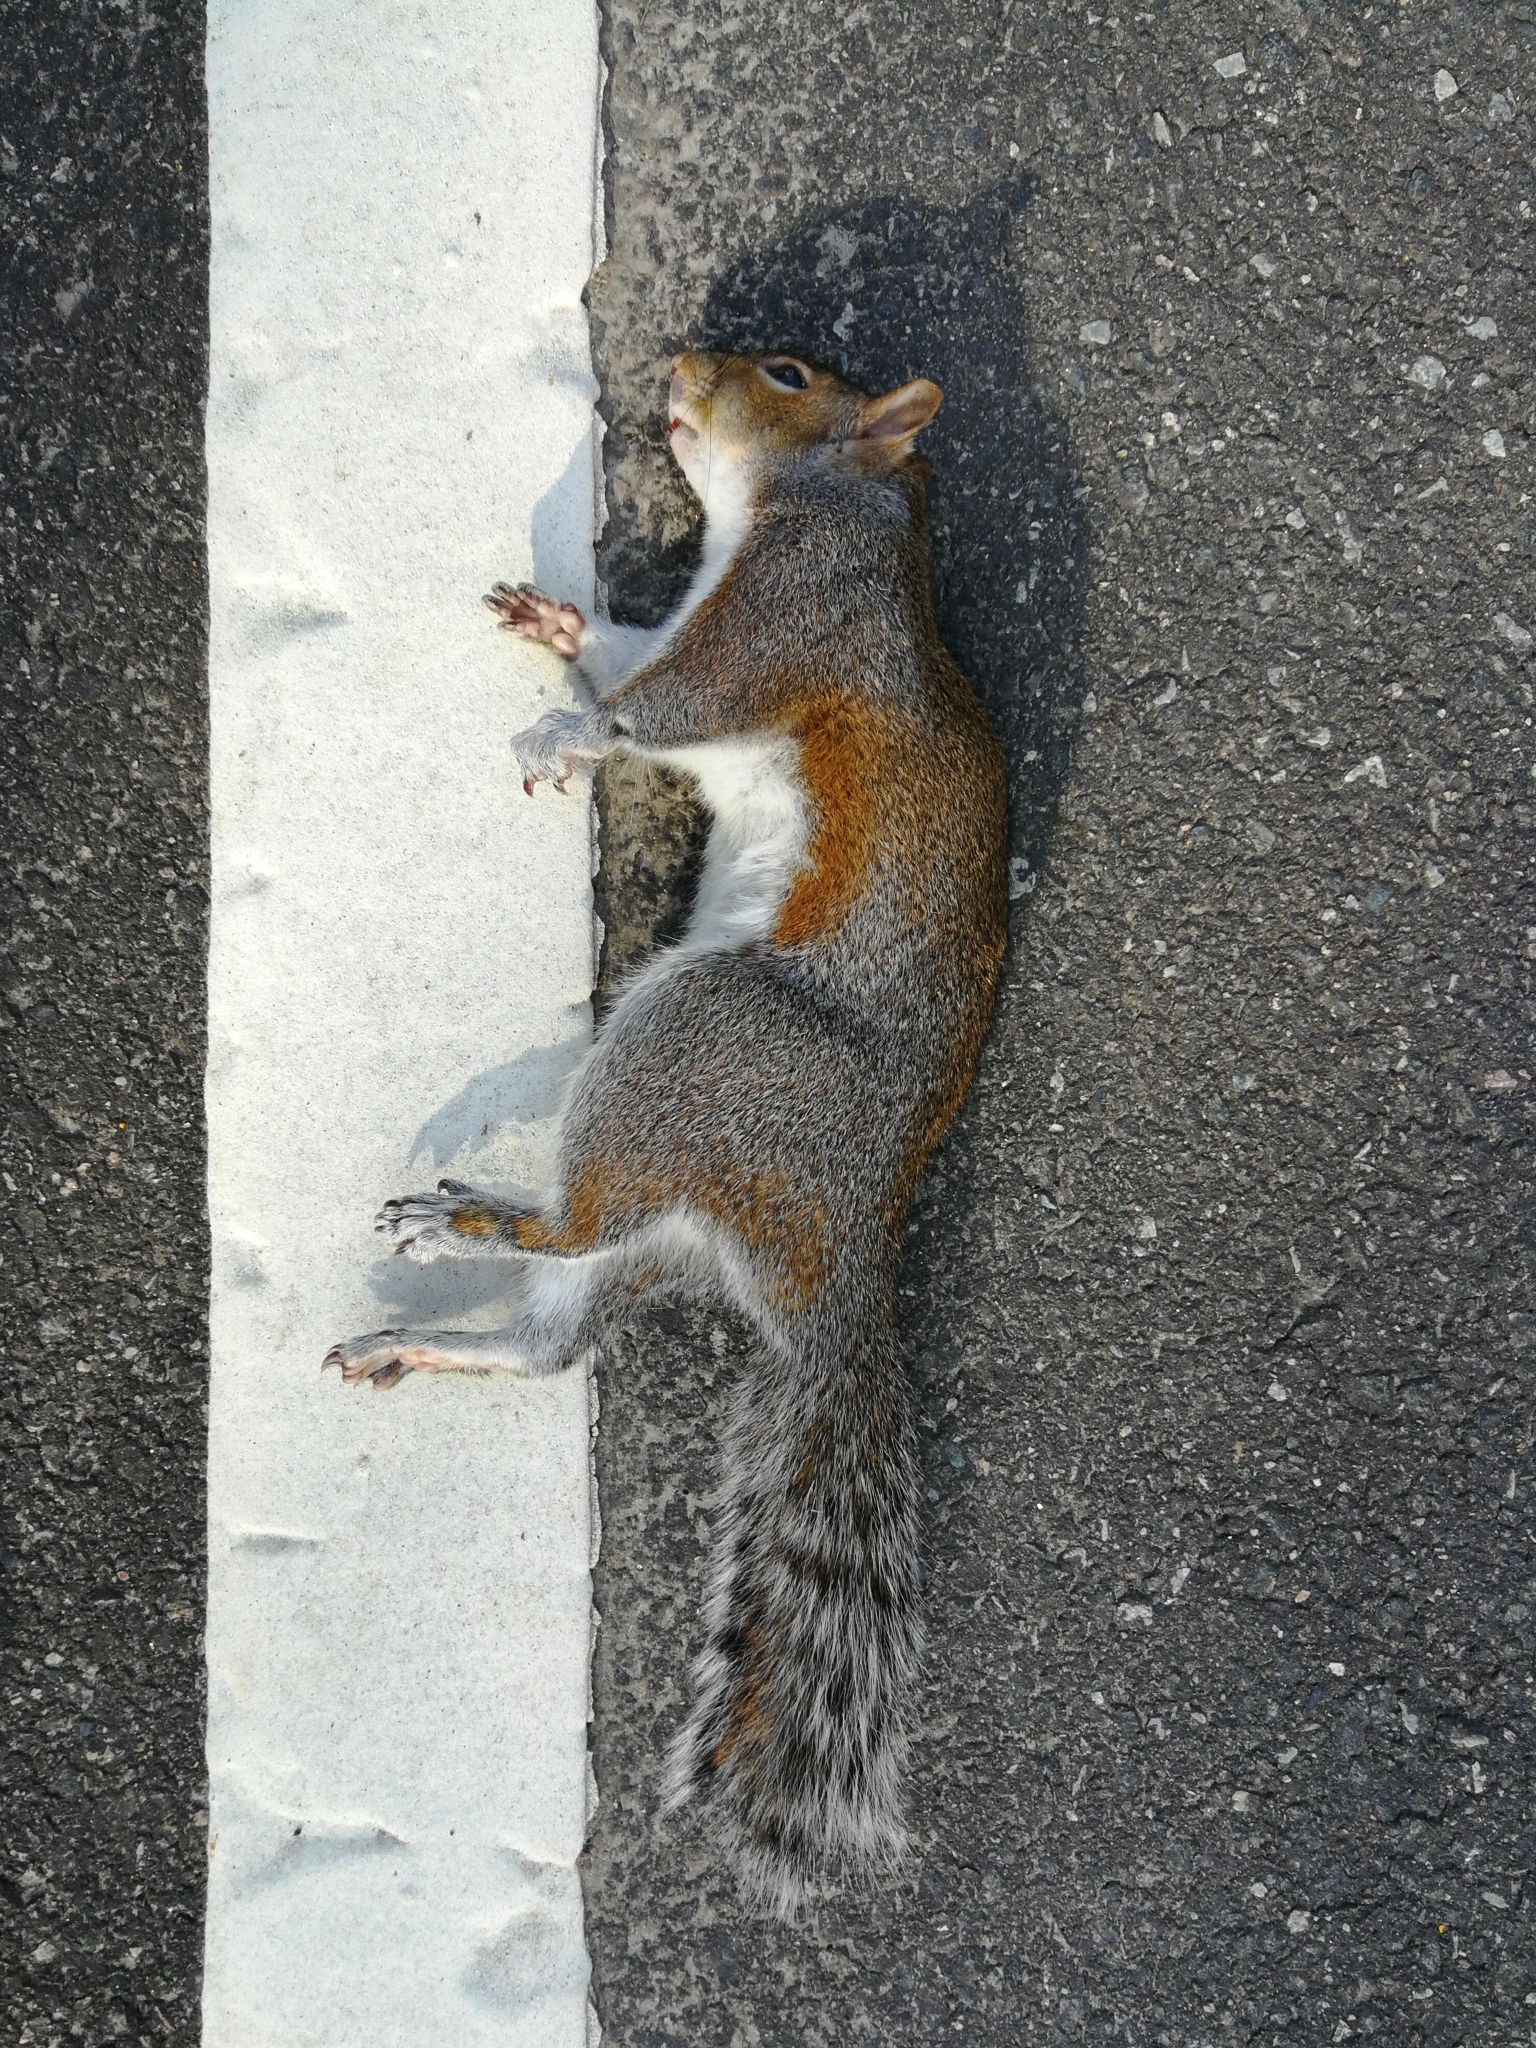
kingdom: Animalia
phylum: Chordata
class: Mammalia
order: Rodentia
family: Sciuridae
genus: Sciurus
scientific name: Sciurus carolinensis
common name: Eastern gray squirrel
